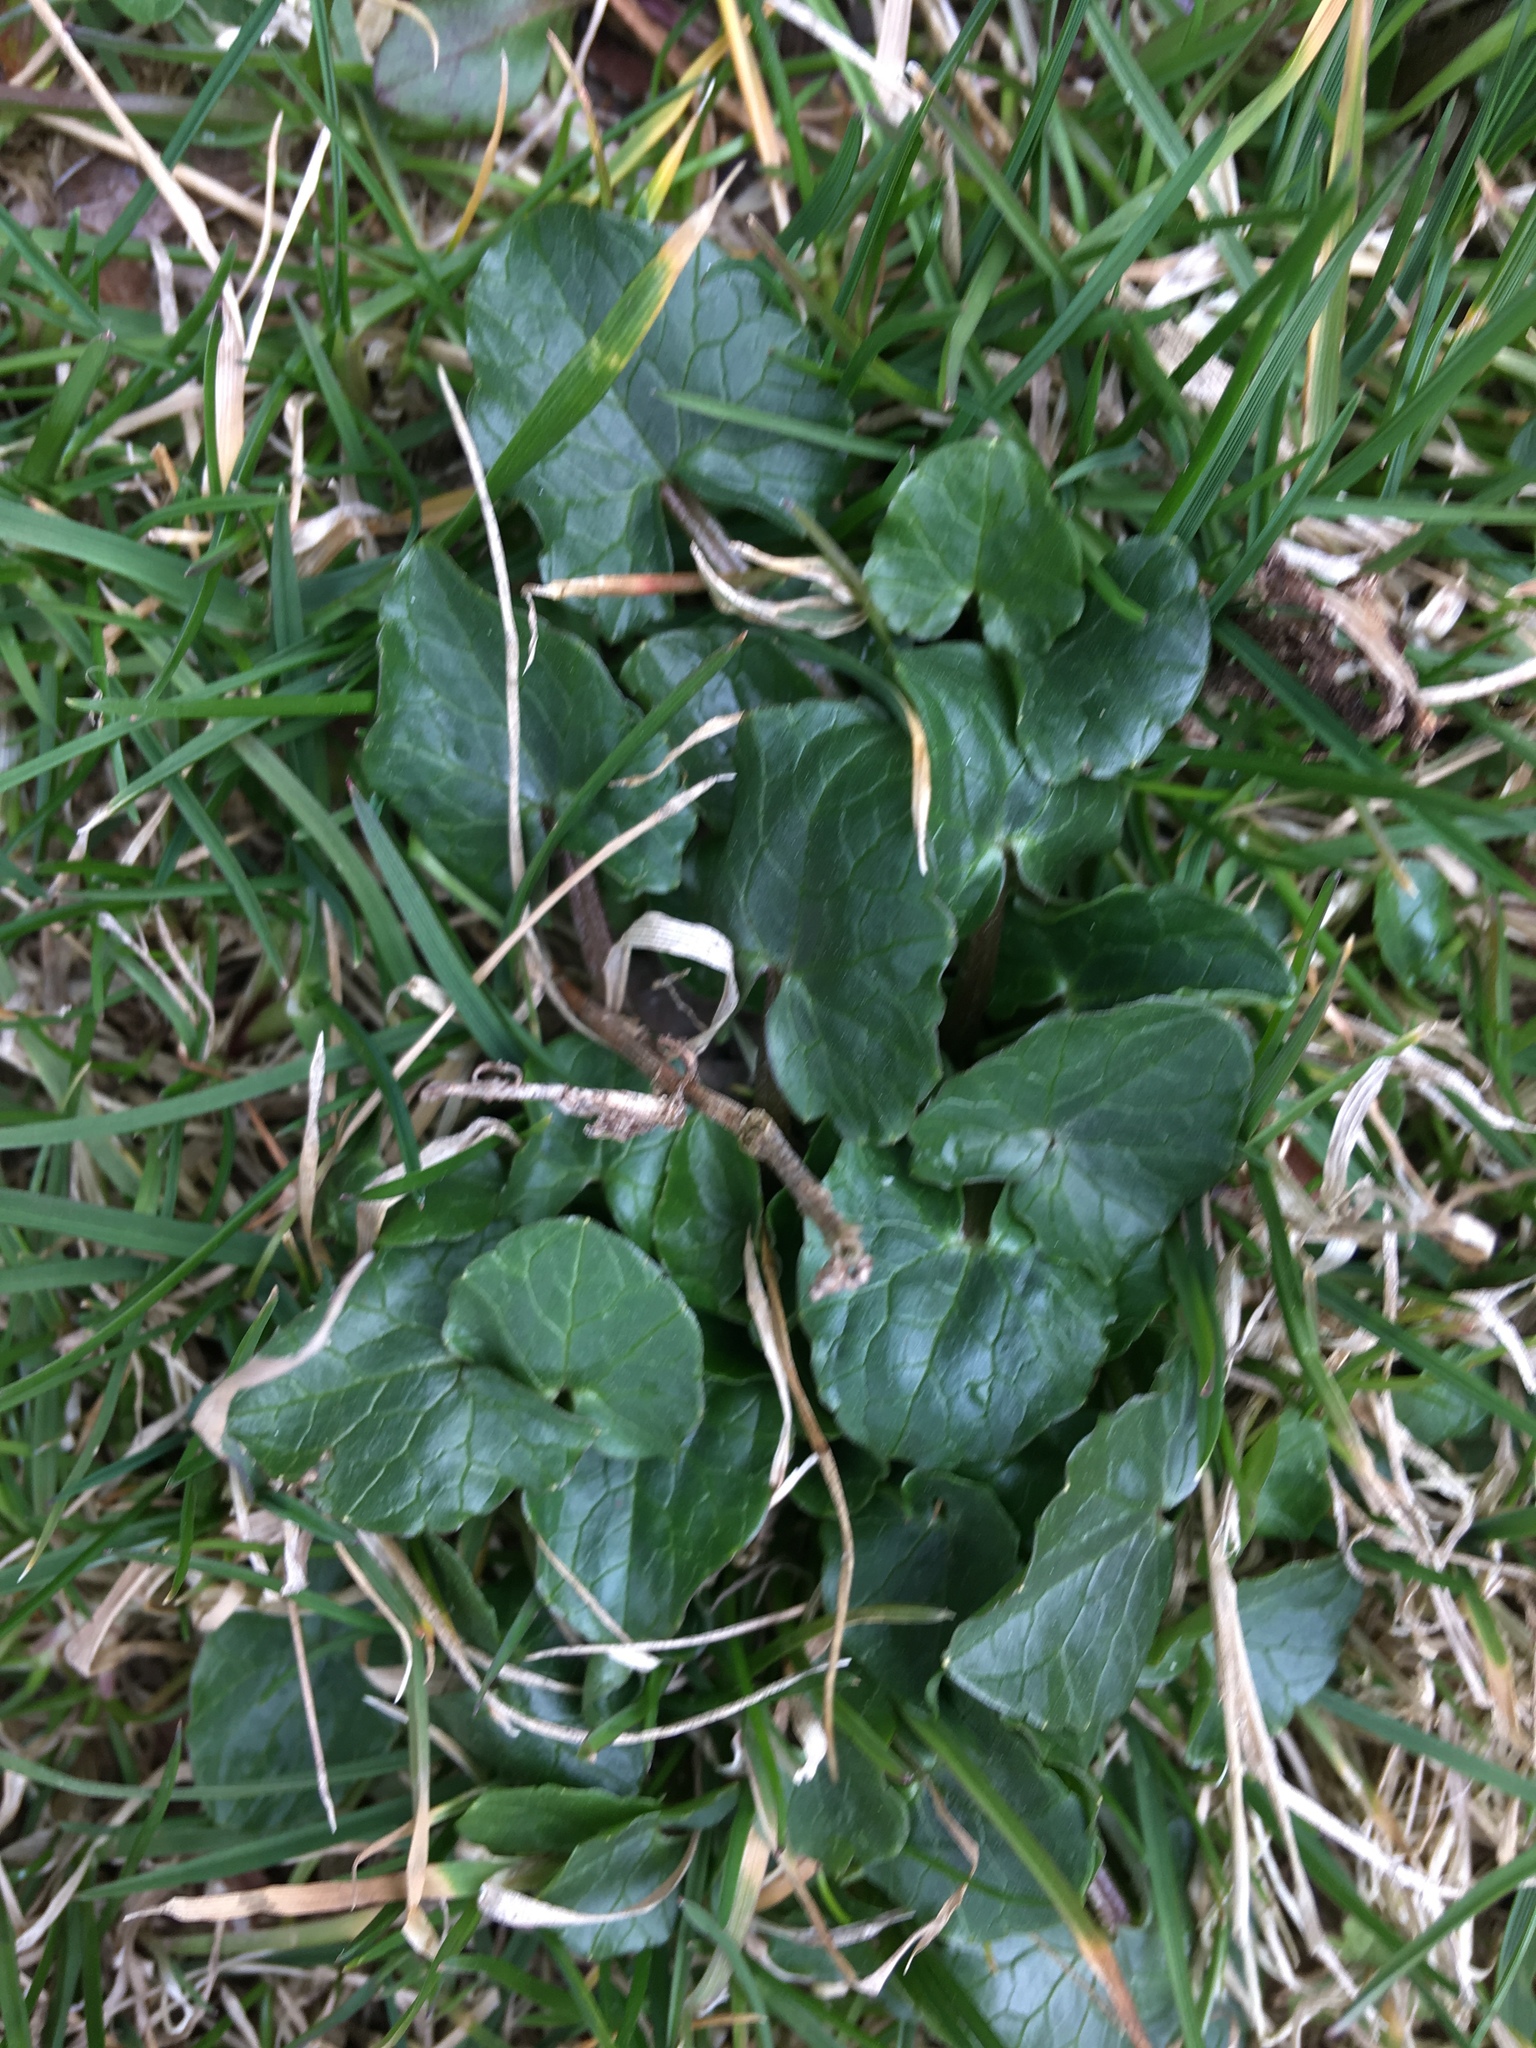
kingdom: Plantae
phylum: Tracheophyta
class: Magnoliopsida
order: Ranunculales
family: Ranunculaceae
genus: Ficaria
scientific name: Ficaria verna
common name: Lesser celandine
